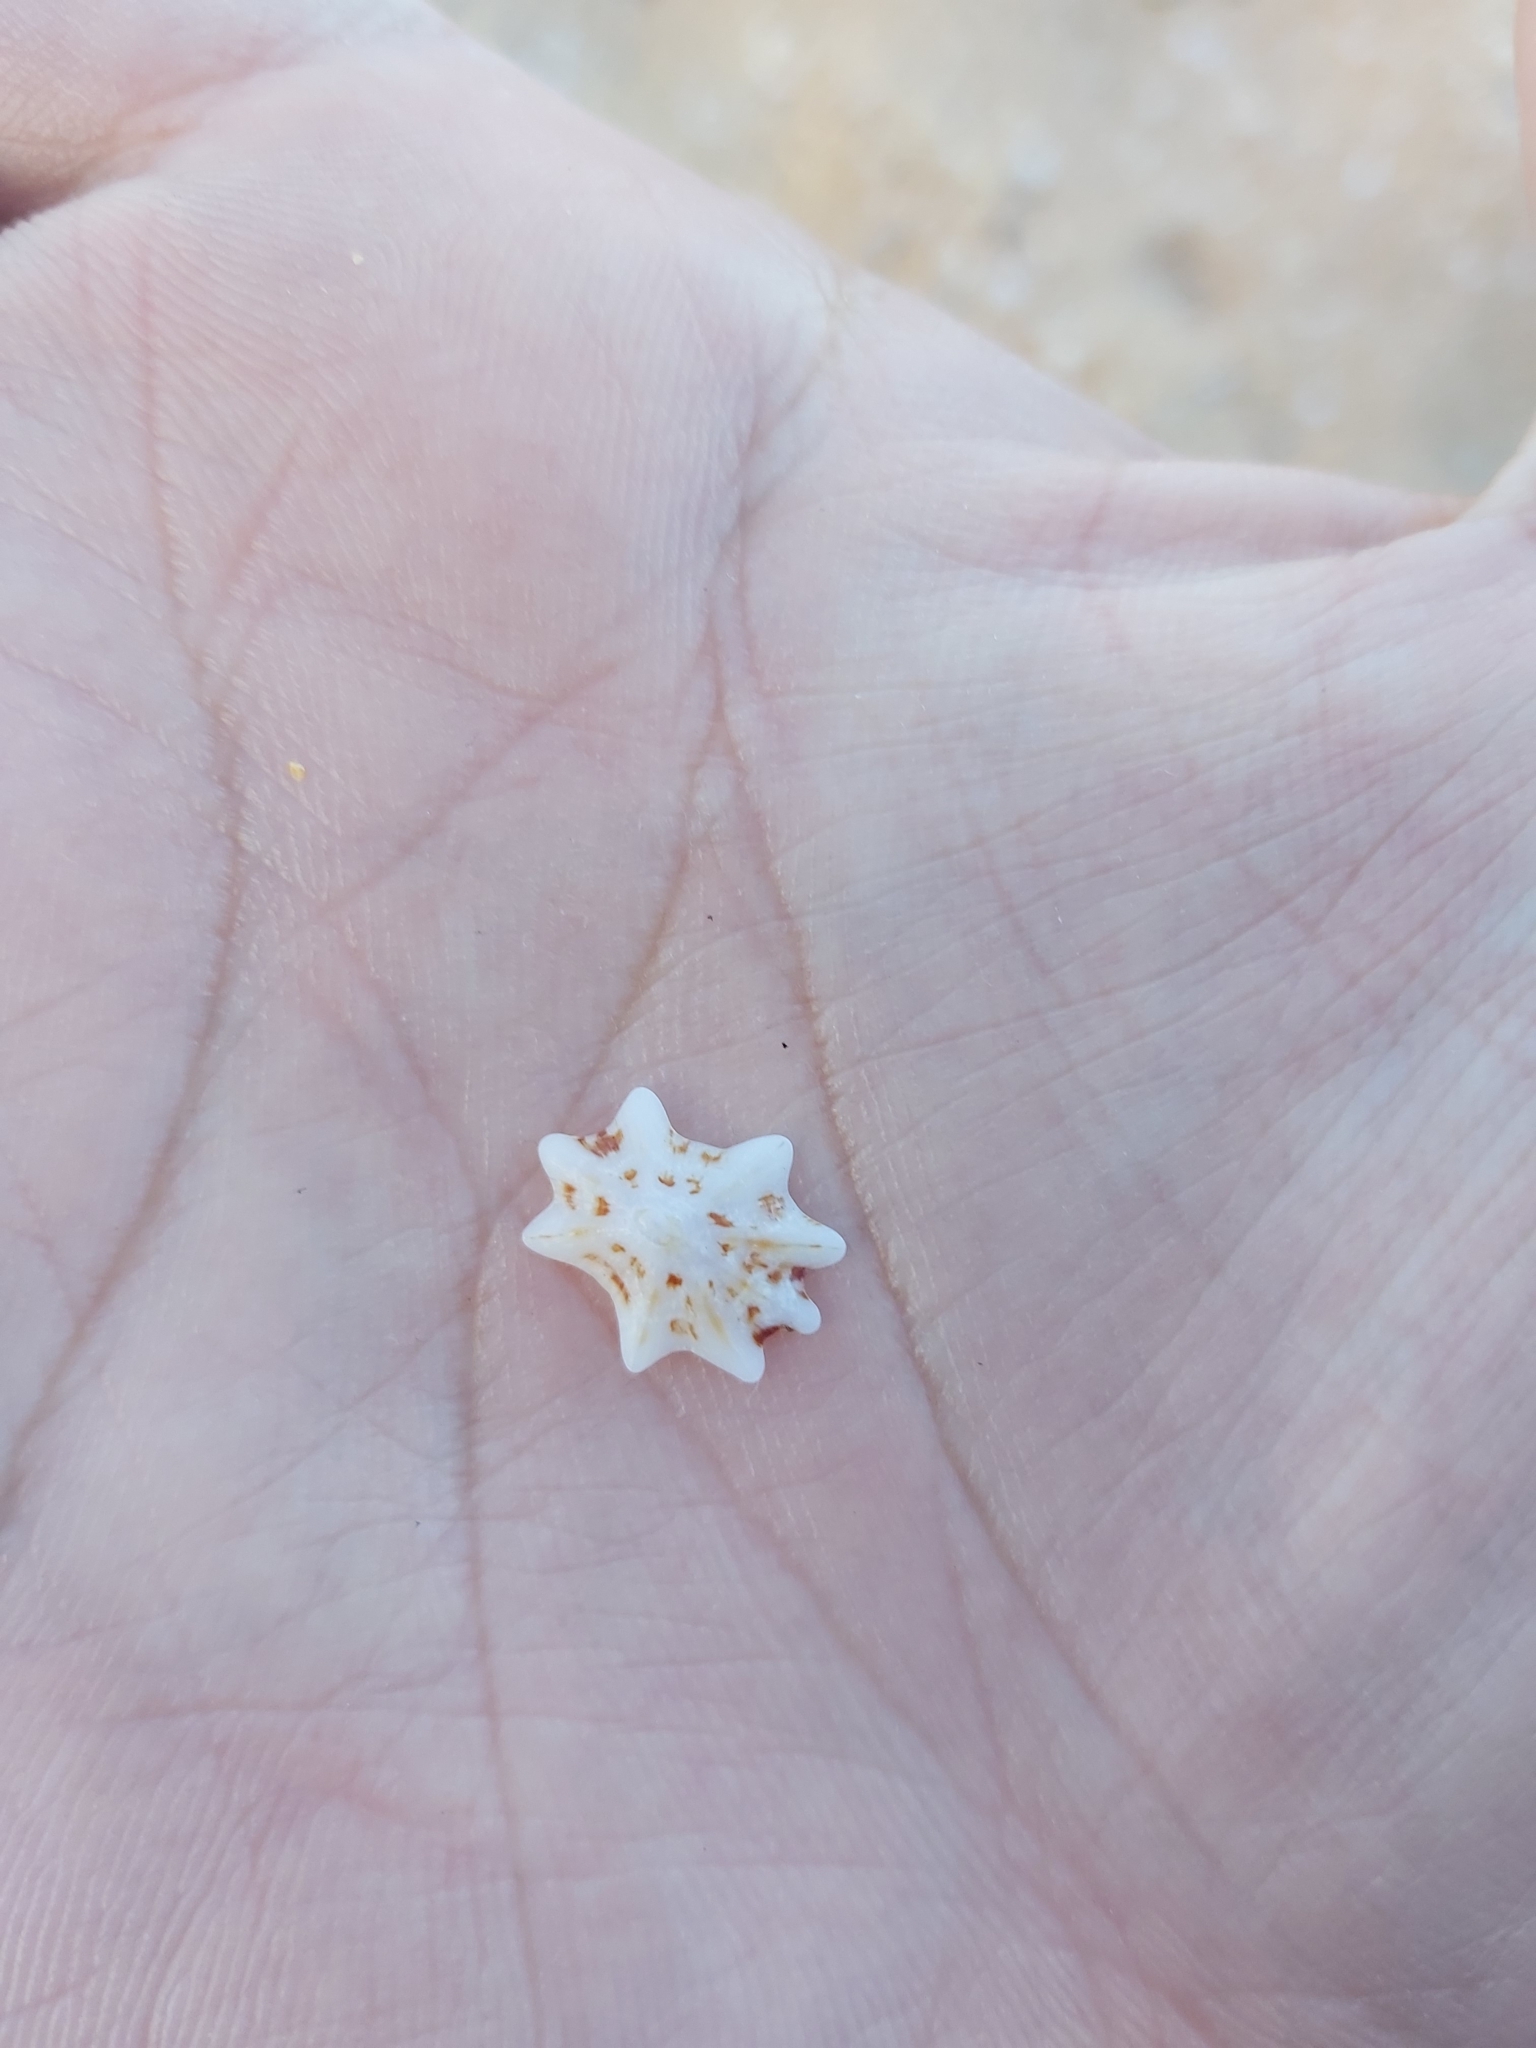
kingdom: Animalia
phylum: Mollusca
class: Gastropoda
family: Patellidae
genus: Scutellastra
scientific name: Scutellastra chapmani
